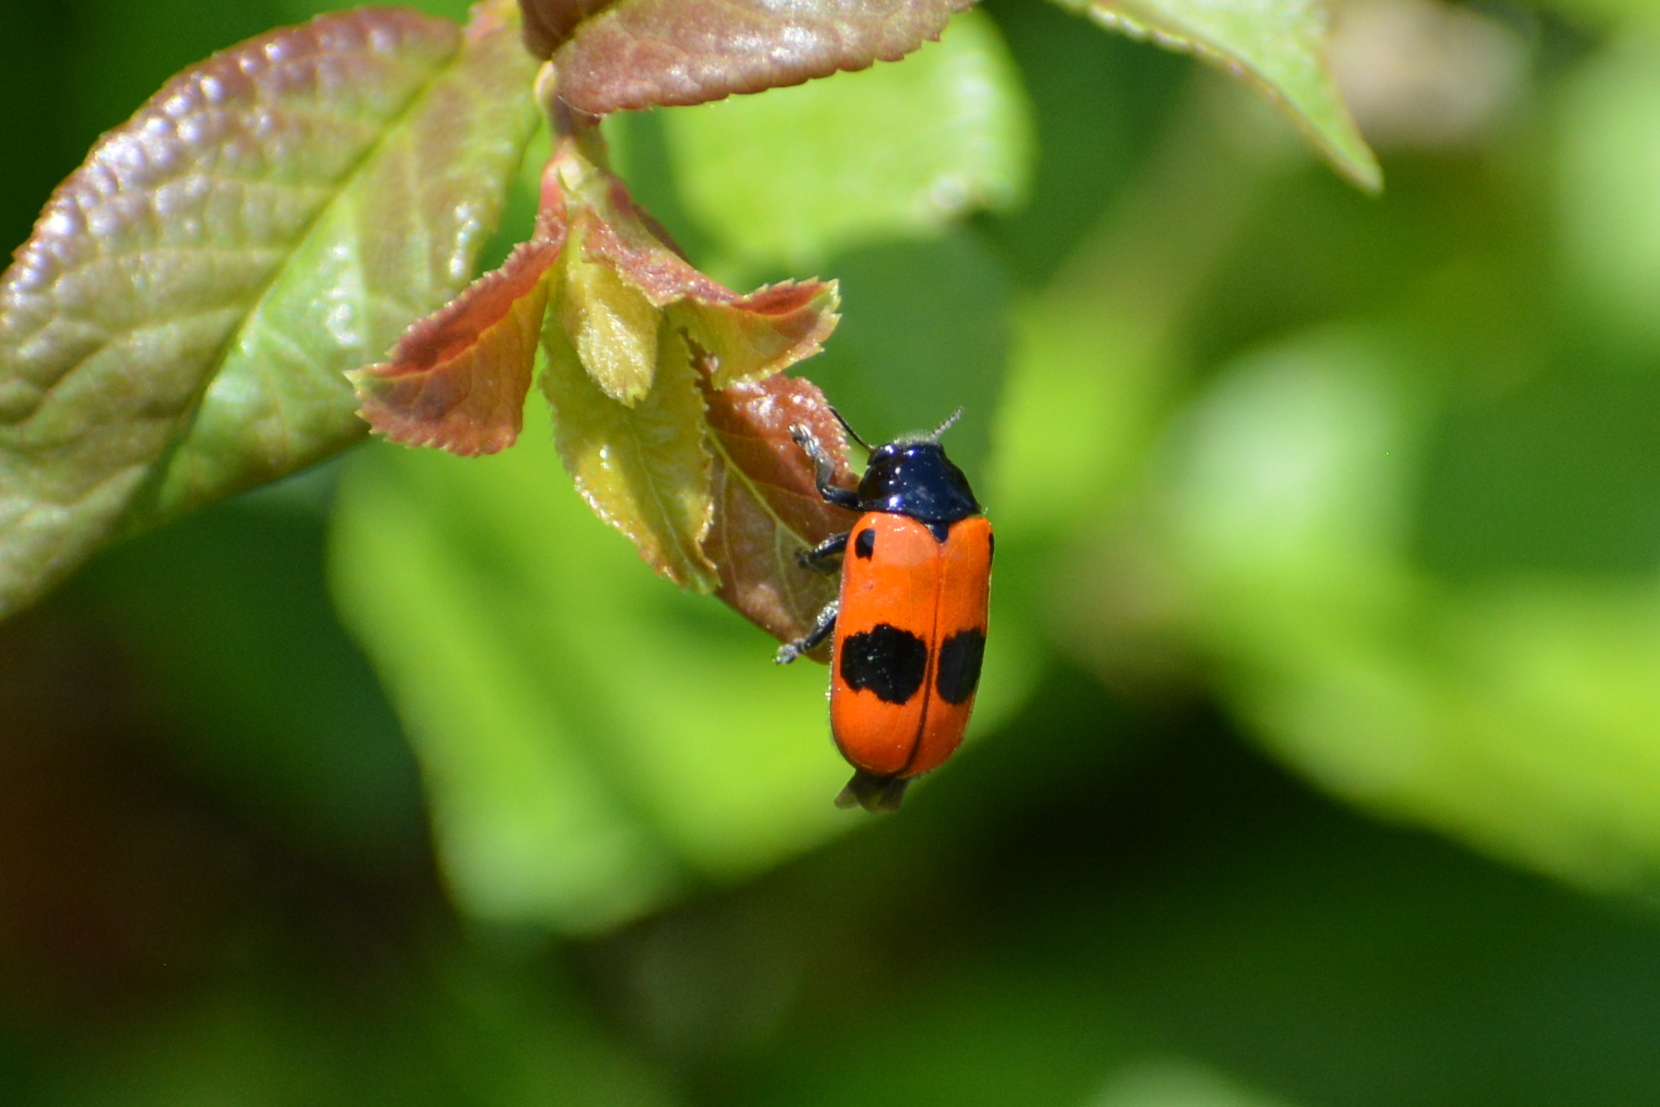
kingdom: Animalia
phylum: Arthropoda
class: Insecta
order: Coleoptera
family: Chrysomelidae
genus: Clytra
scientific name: Clytra laeviuscula
